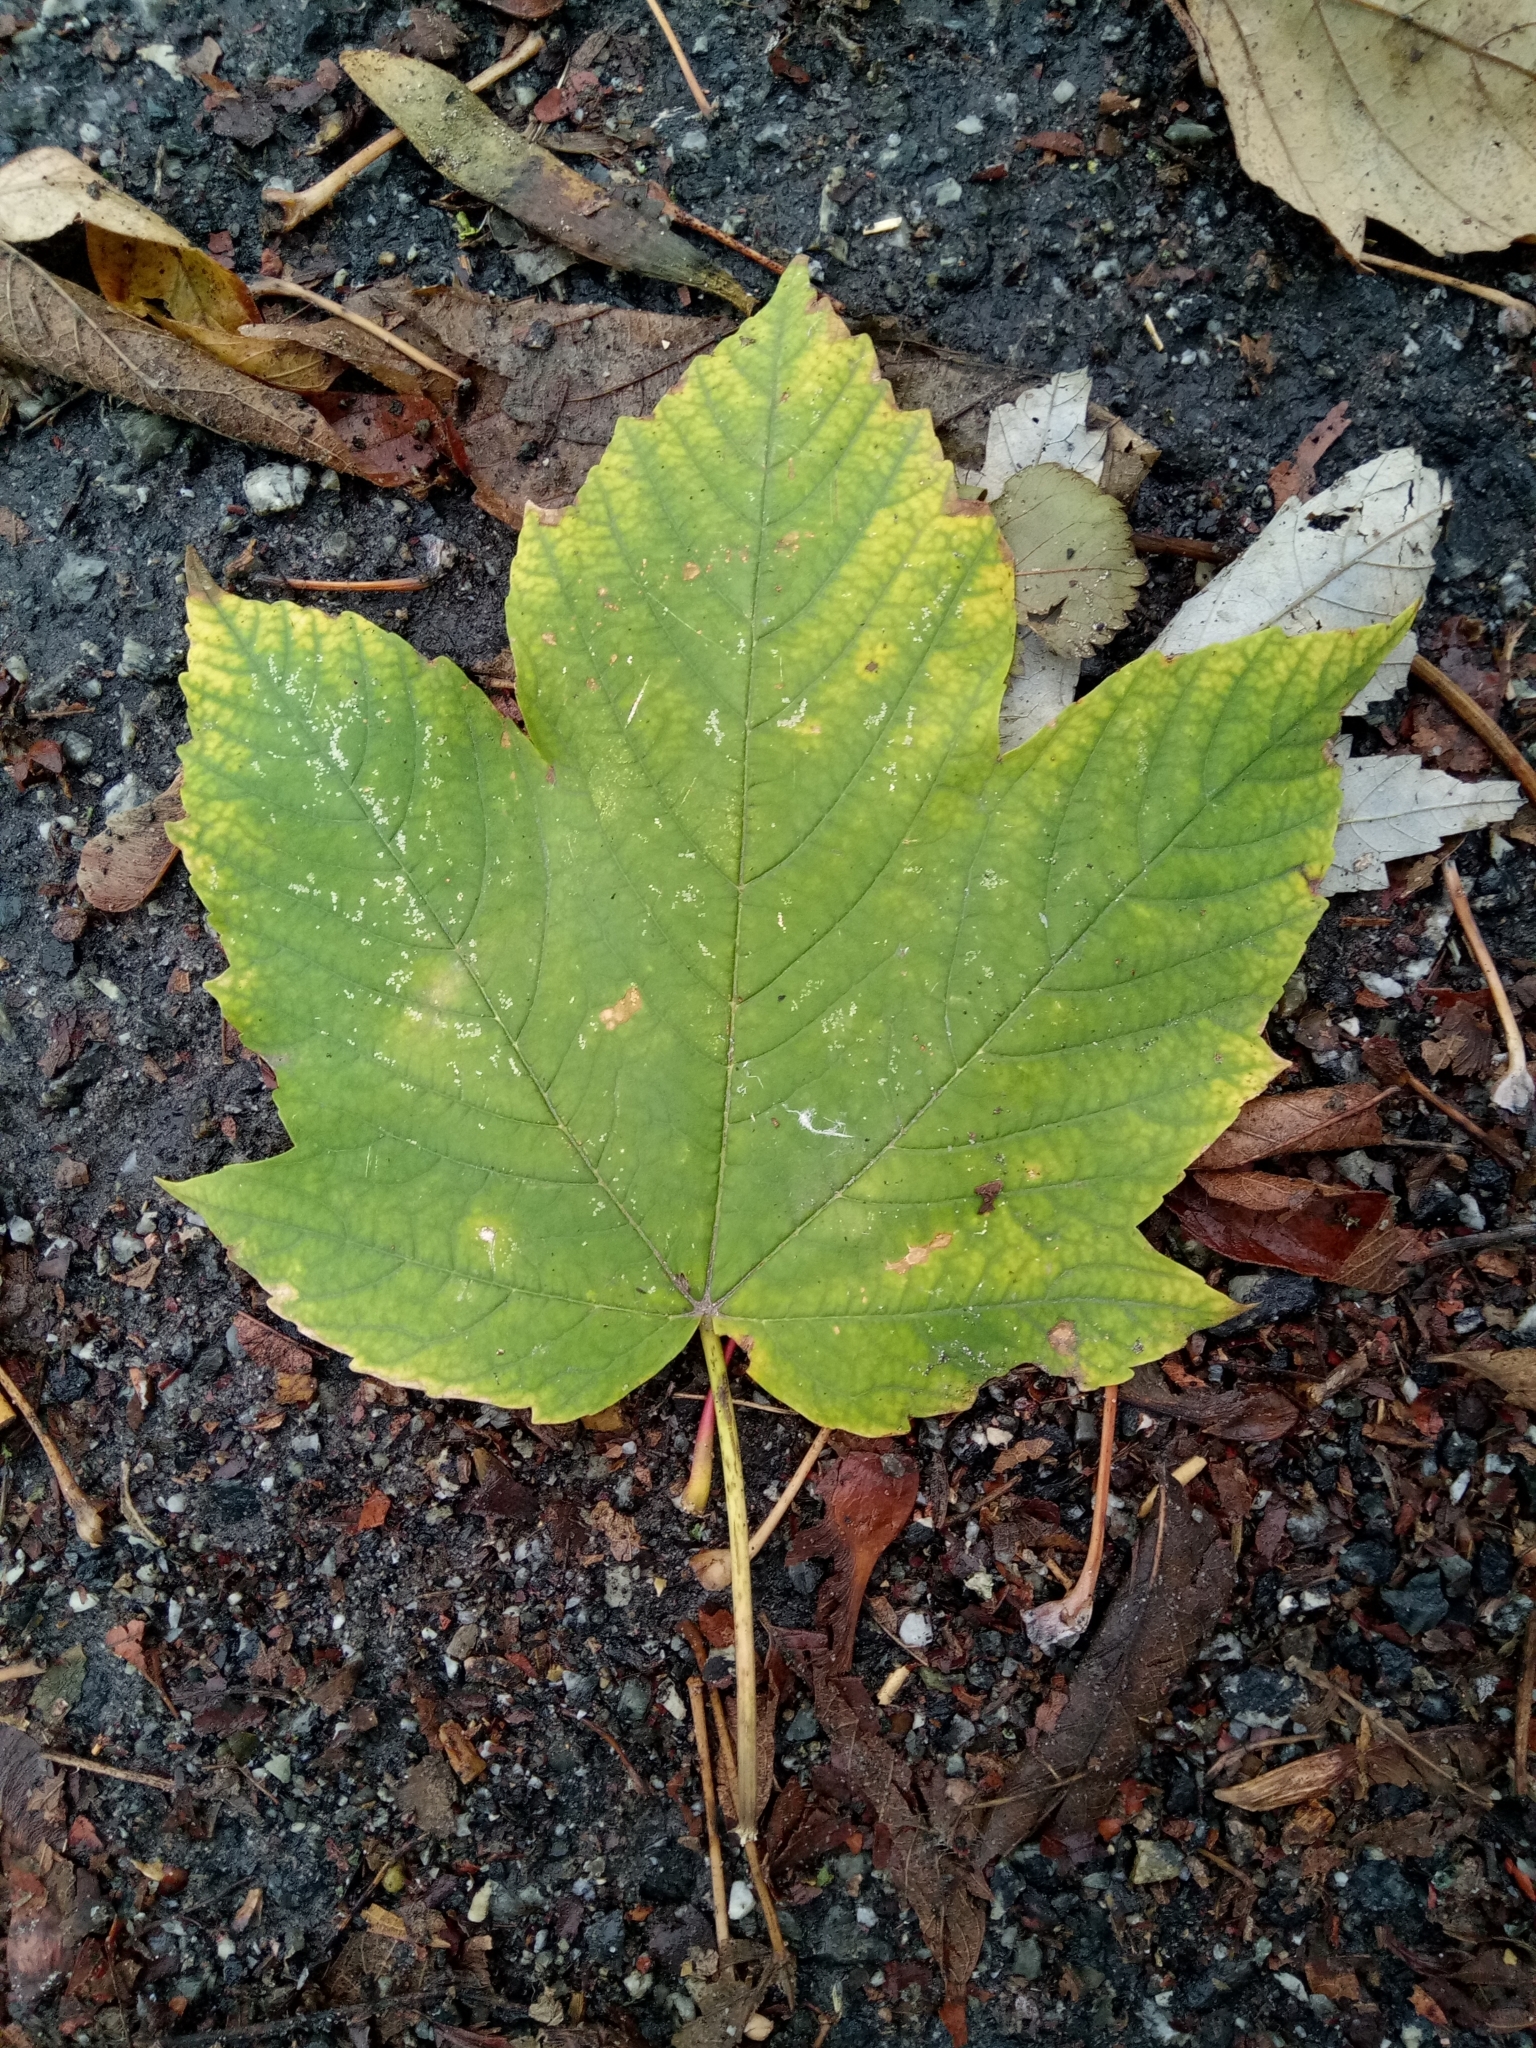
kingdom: Plantae
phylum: Tracheophyta
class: Magnoliopsida
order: Sapindales
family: Sapindaceae
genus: Acer
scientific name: Acer pseudoplatanus
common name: Sycamore
